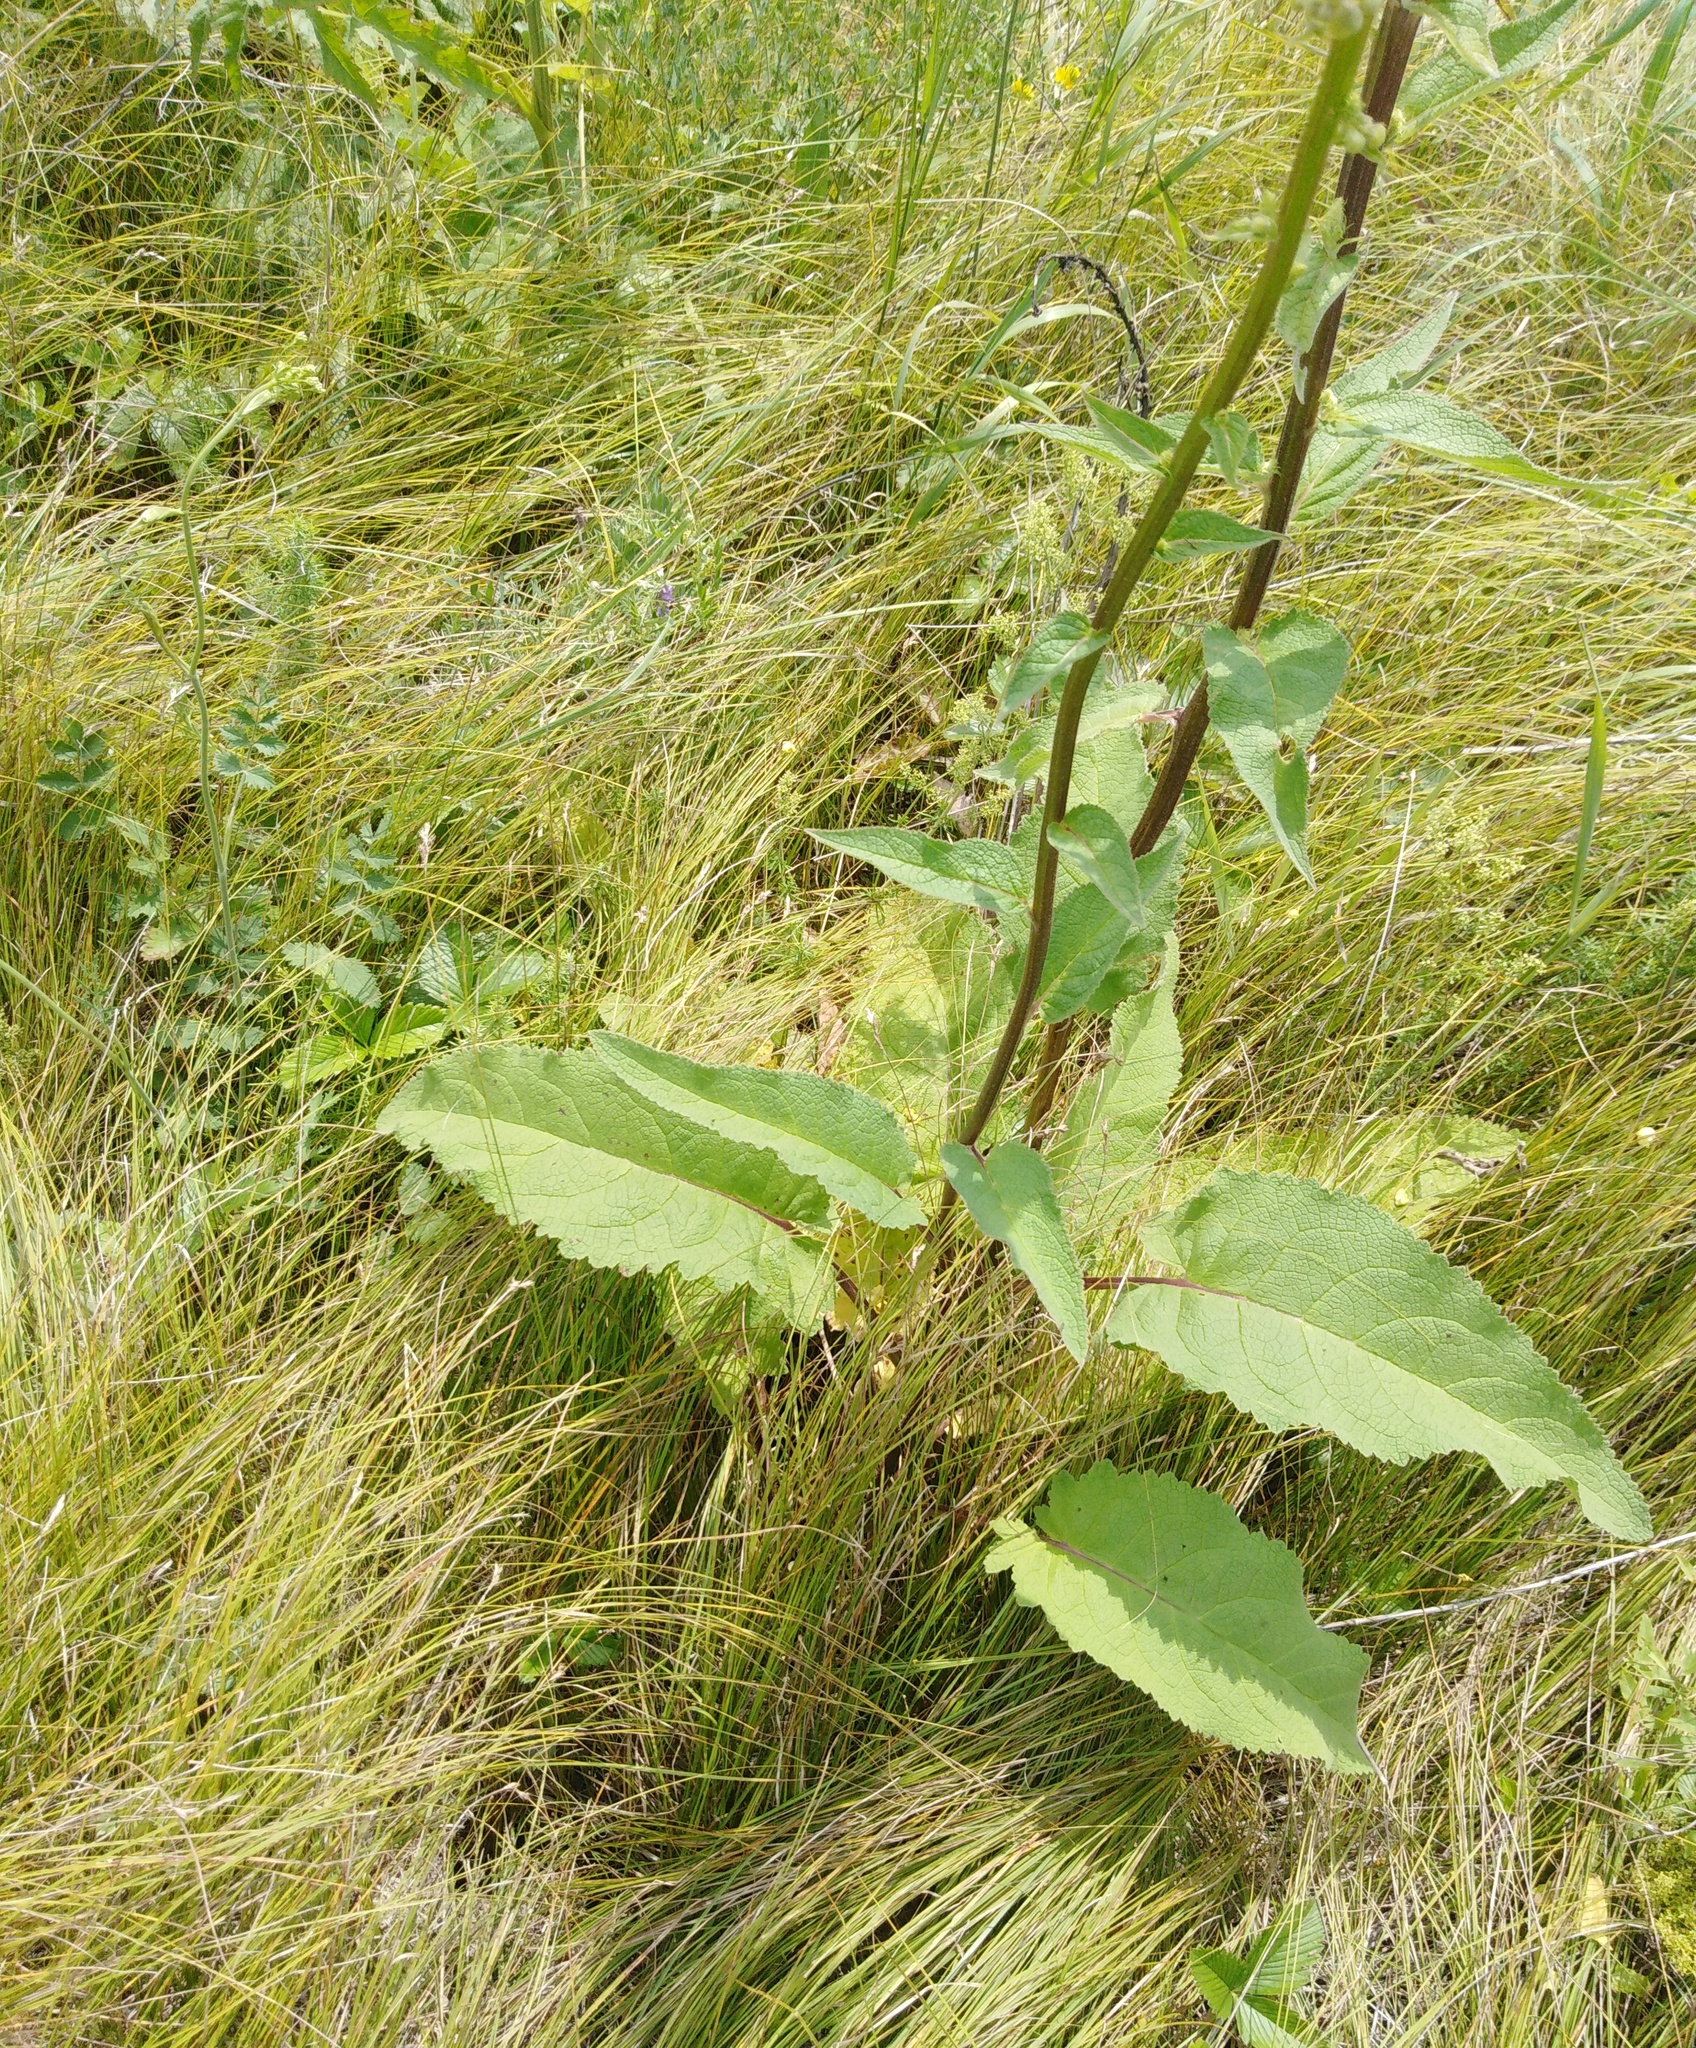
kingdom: Plantae
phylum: Tracheophyta
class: Magnoliopsida
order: Lamiales
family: Scrophulariaceae
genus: Verbascum
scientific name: Verbascum nigrum
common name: Dark mullein
